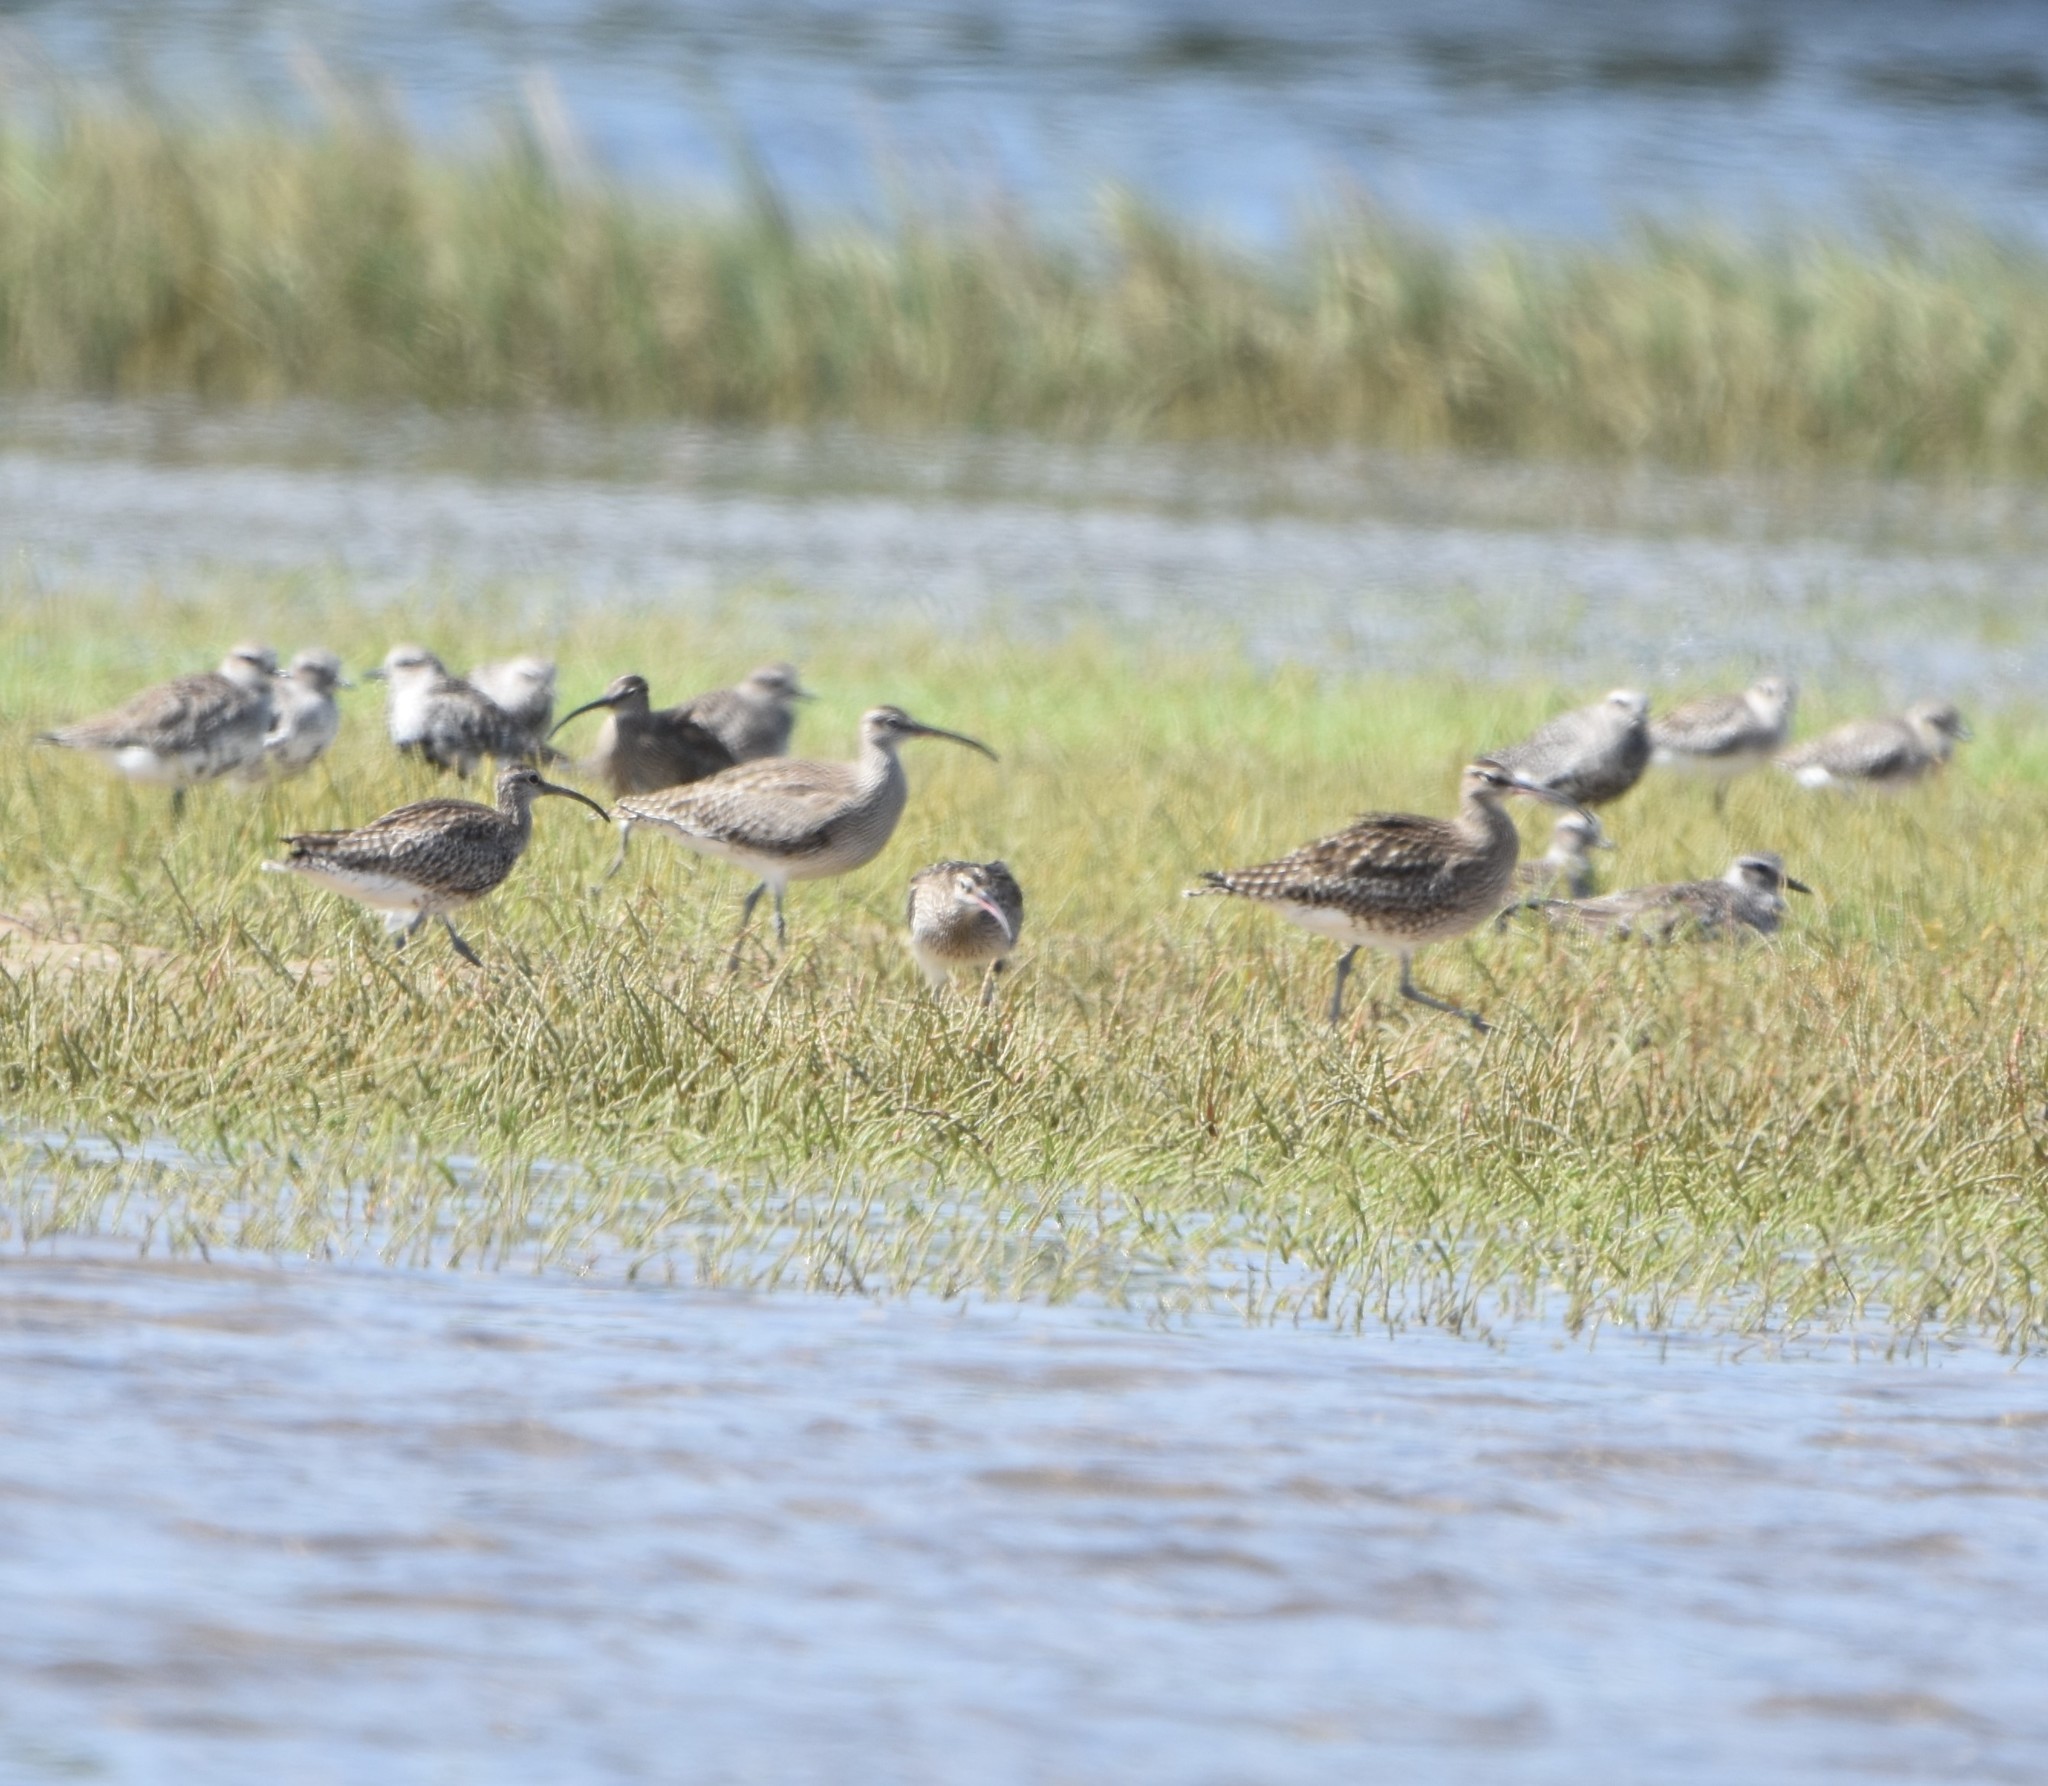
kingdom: Animalia
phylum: Chordata
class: Aves
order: Charadriiformes
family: Scolopacidae
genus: Numenius
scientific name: Numenius phaeopus
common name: Whimbrel
